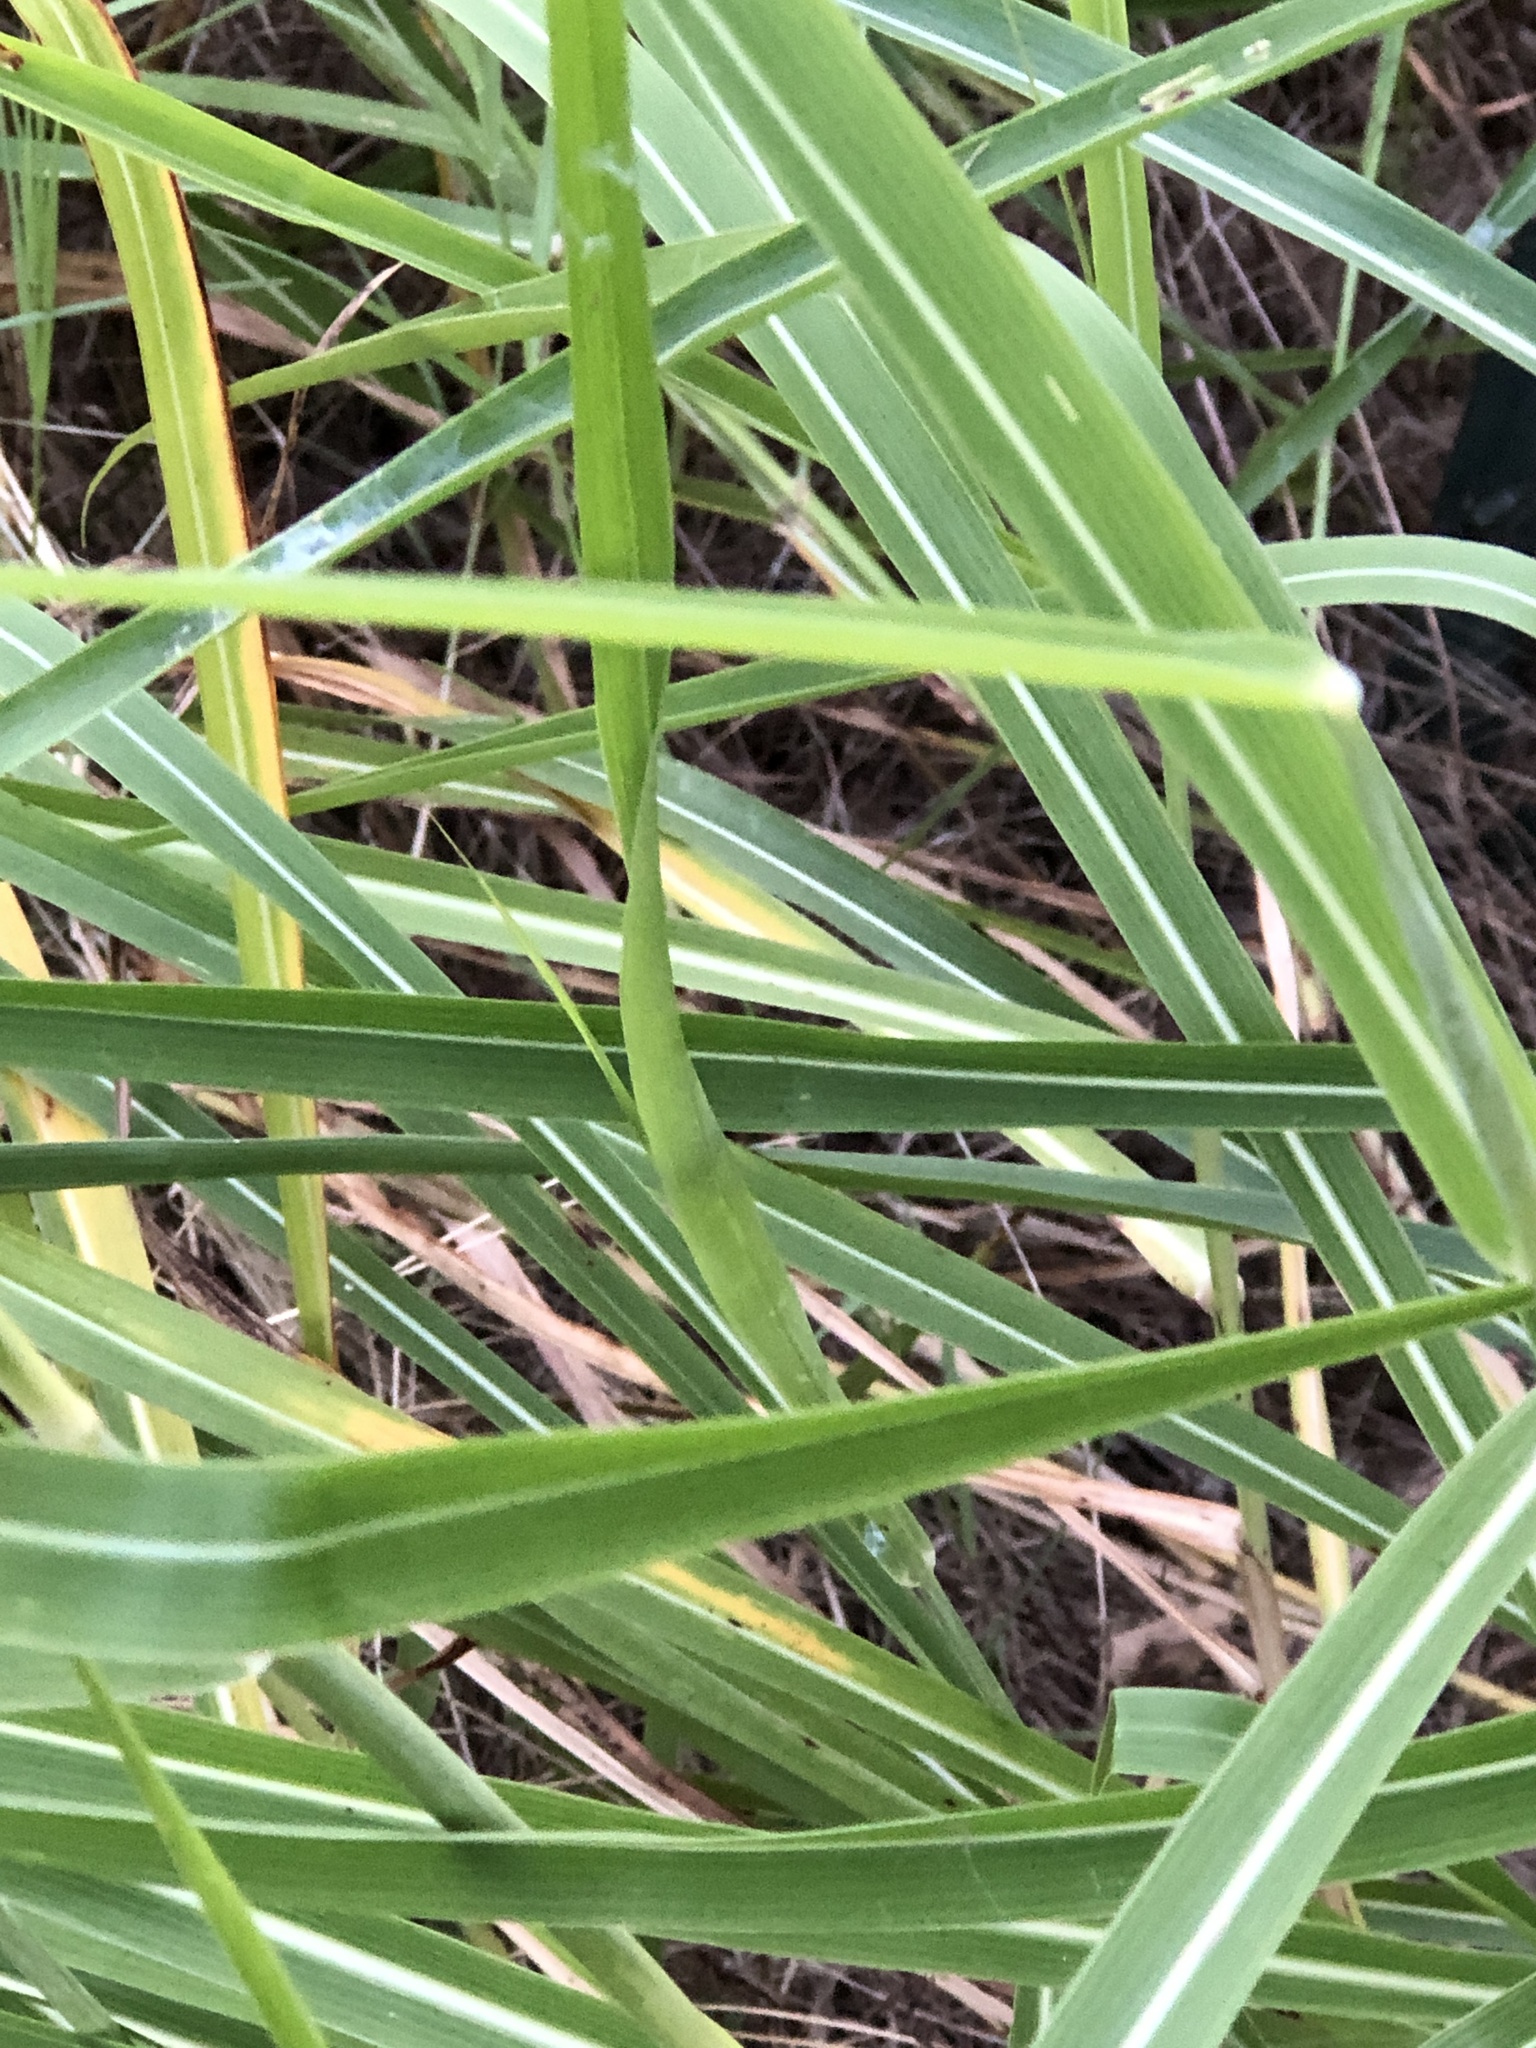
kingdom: Plantae
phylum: Tracheophyta
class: Liliopsida
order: Poales
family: Poaceae
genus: Sorghum
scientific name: Sorghum halepense
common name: Johnson-grass
